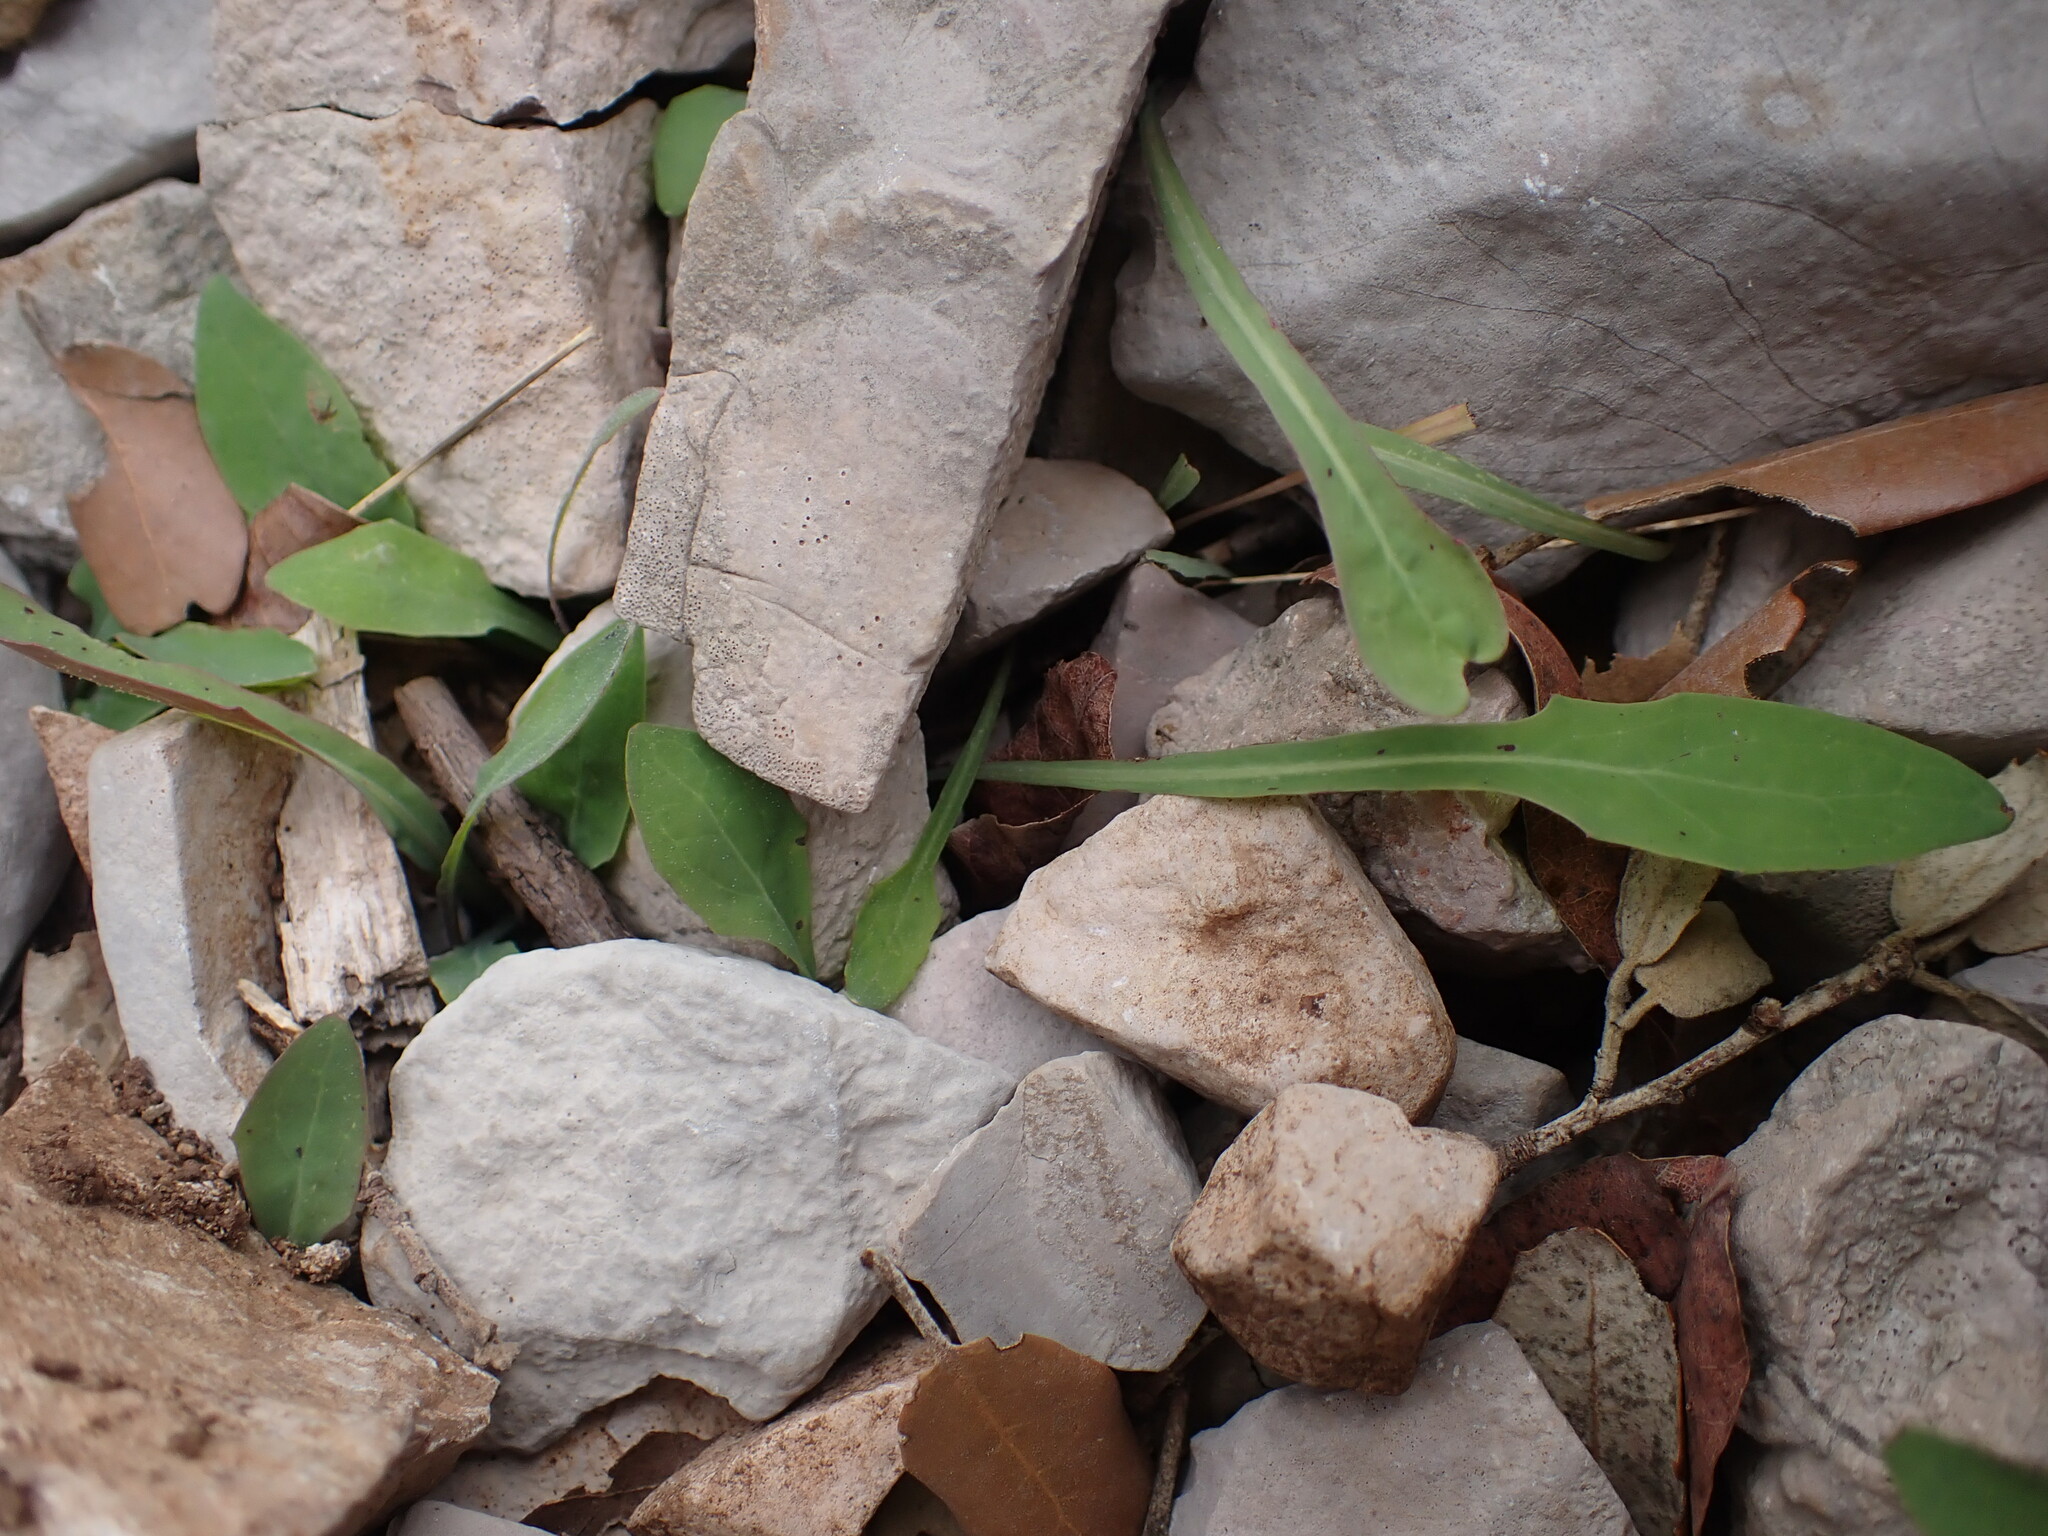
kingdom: Plantae
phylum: Tracheophyta
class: Magnoliopsida
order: Asterales
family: Asteraceae
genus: Aetheorhiza
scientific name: Aetheorhiza bulbosa
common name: Tuberous hawk's-beard
